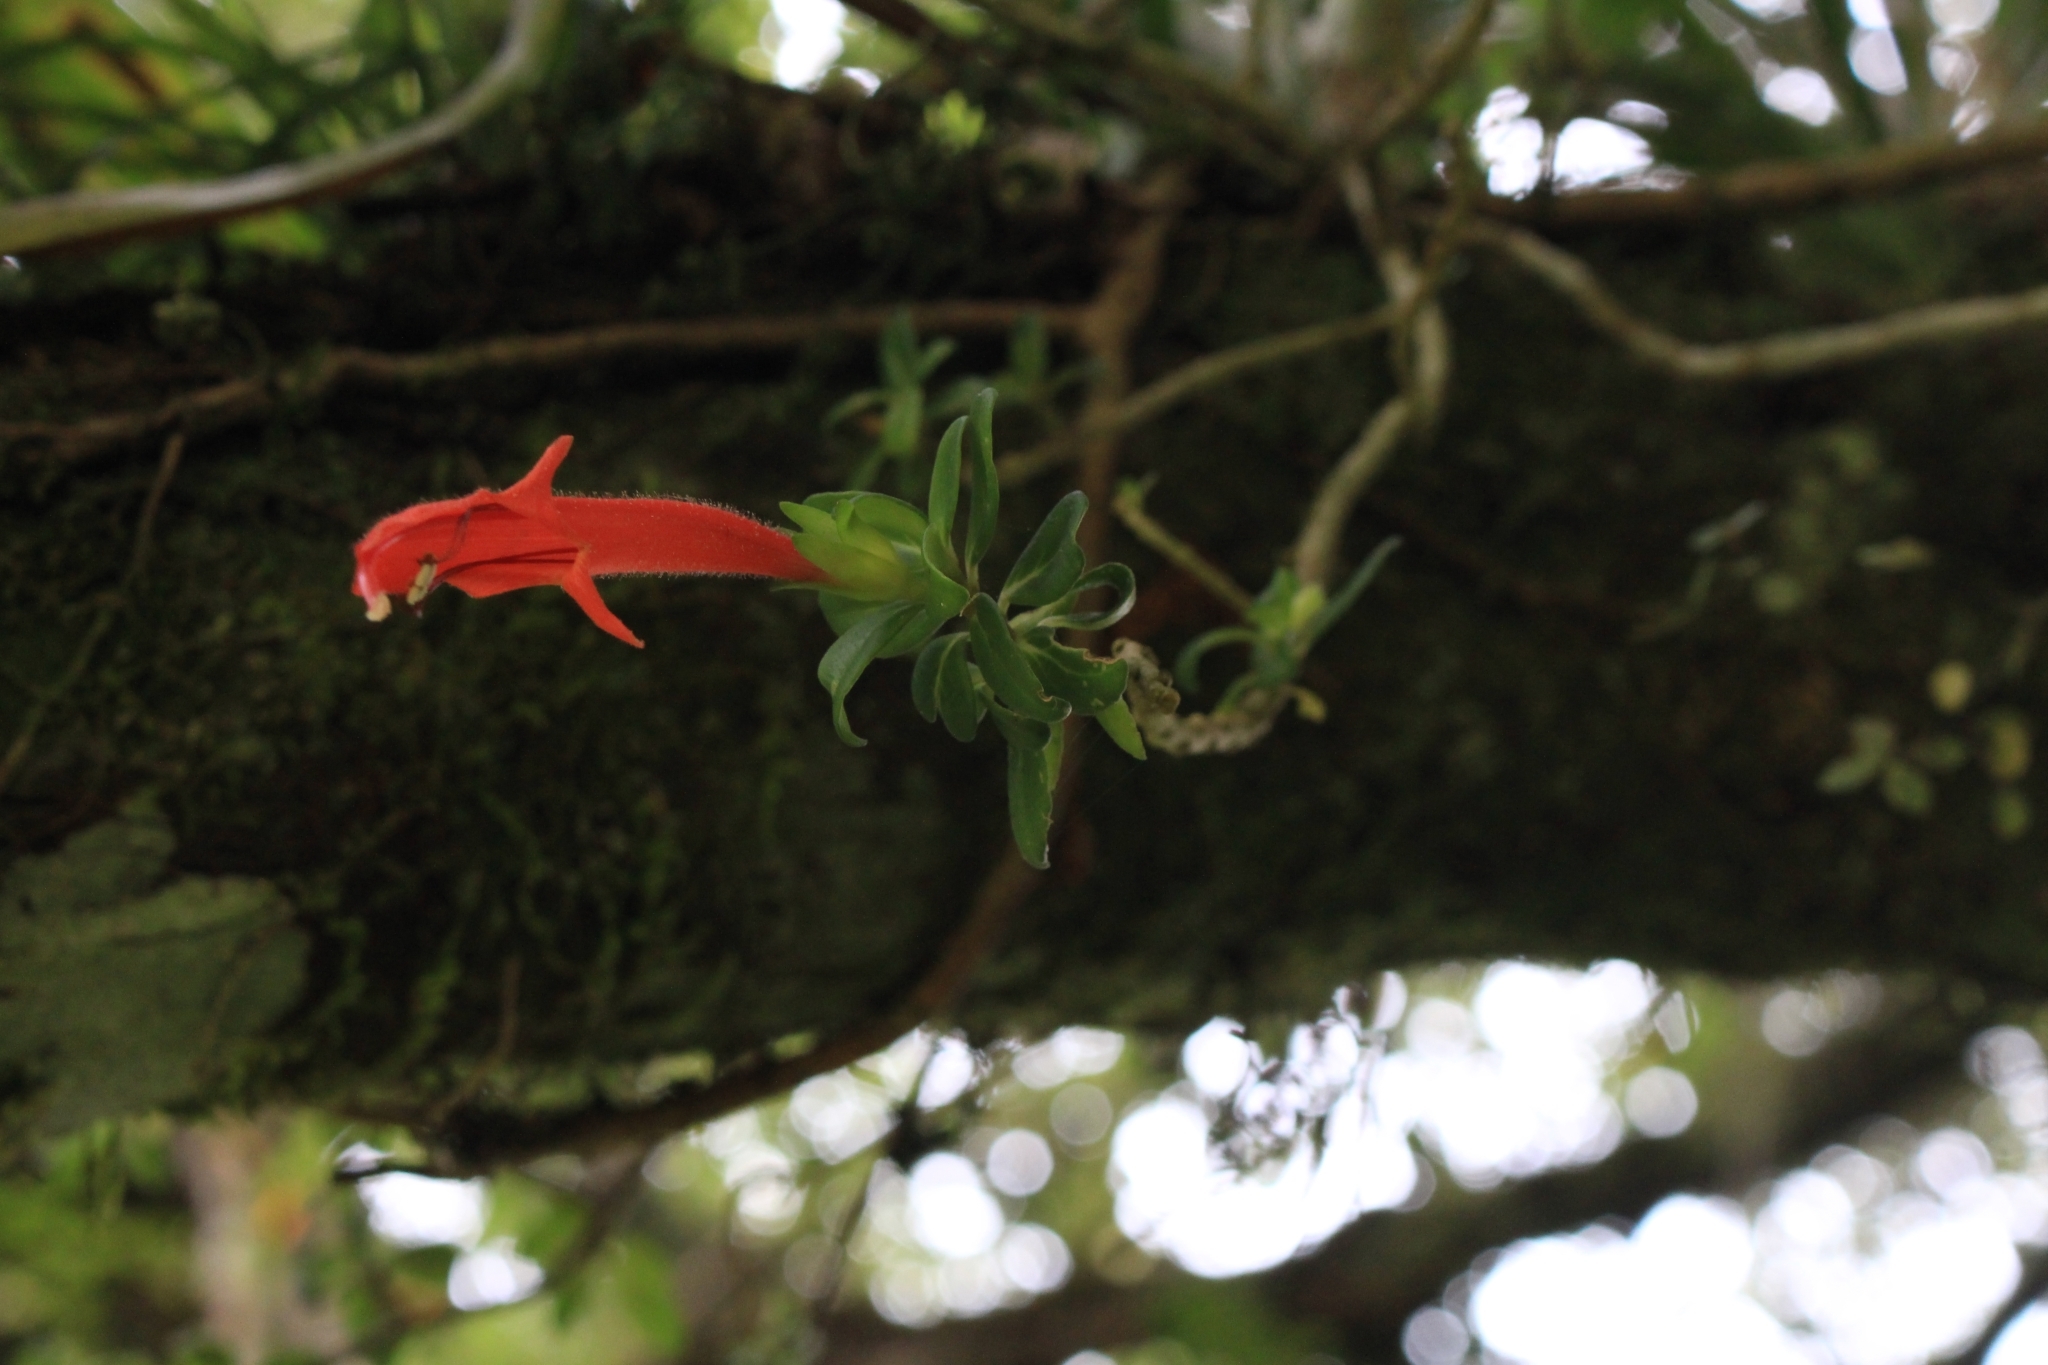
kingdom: Plantae
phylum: Tracheophyta
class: Magnoliopsida
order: Lamiales
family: Gesneriaceae
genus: Columnea
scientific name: Columnea glabra
